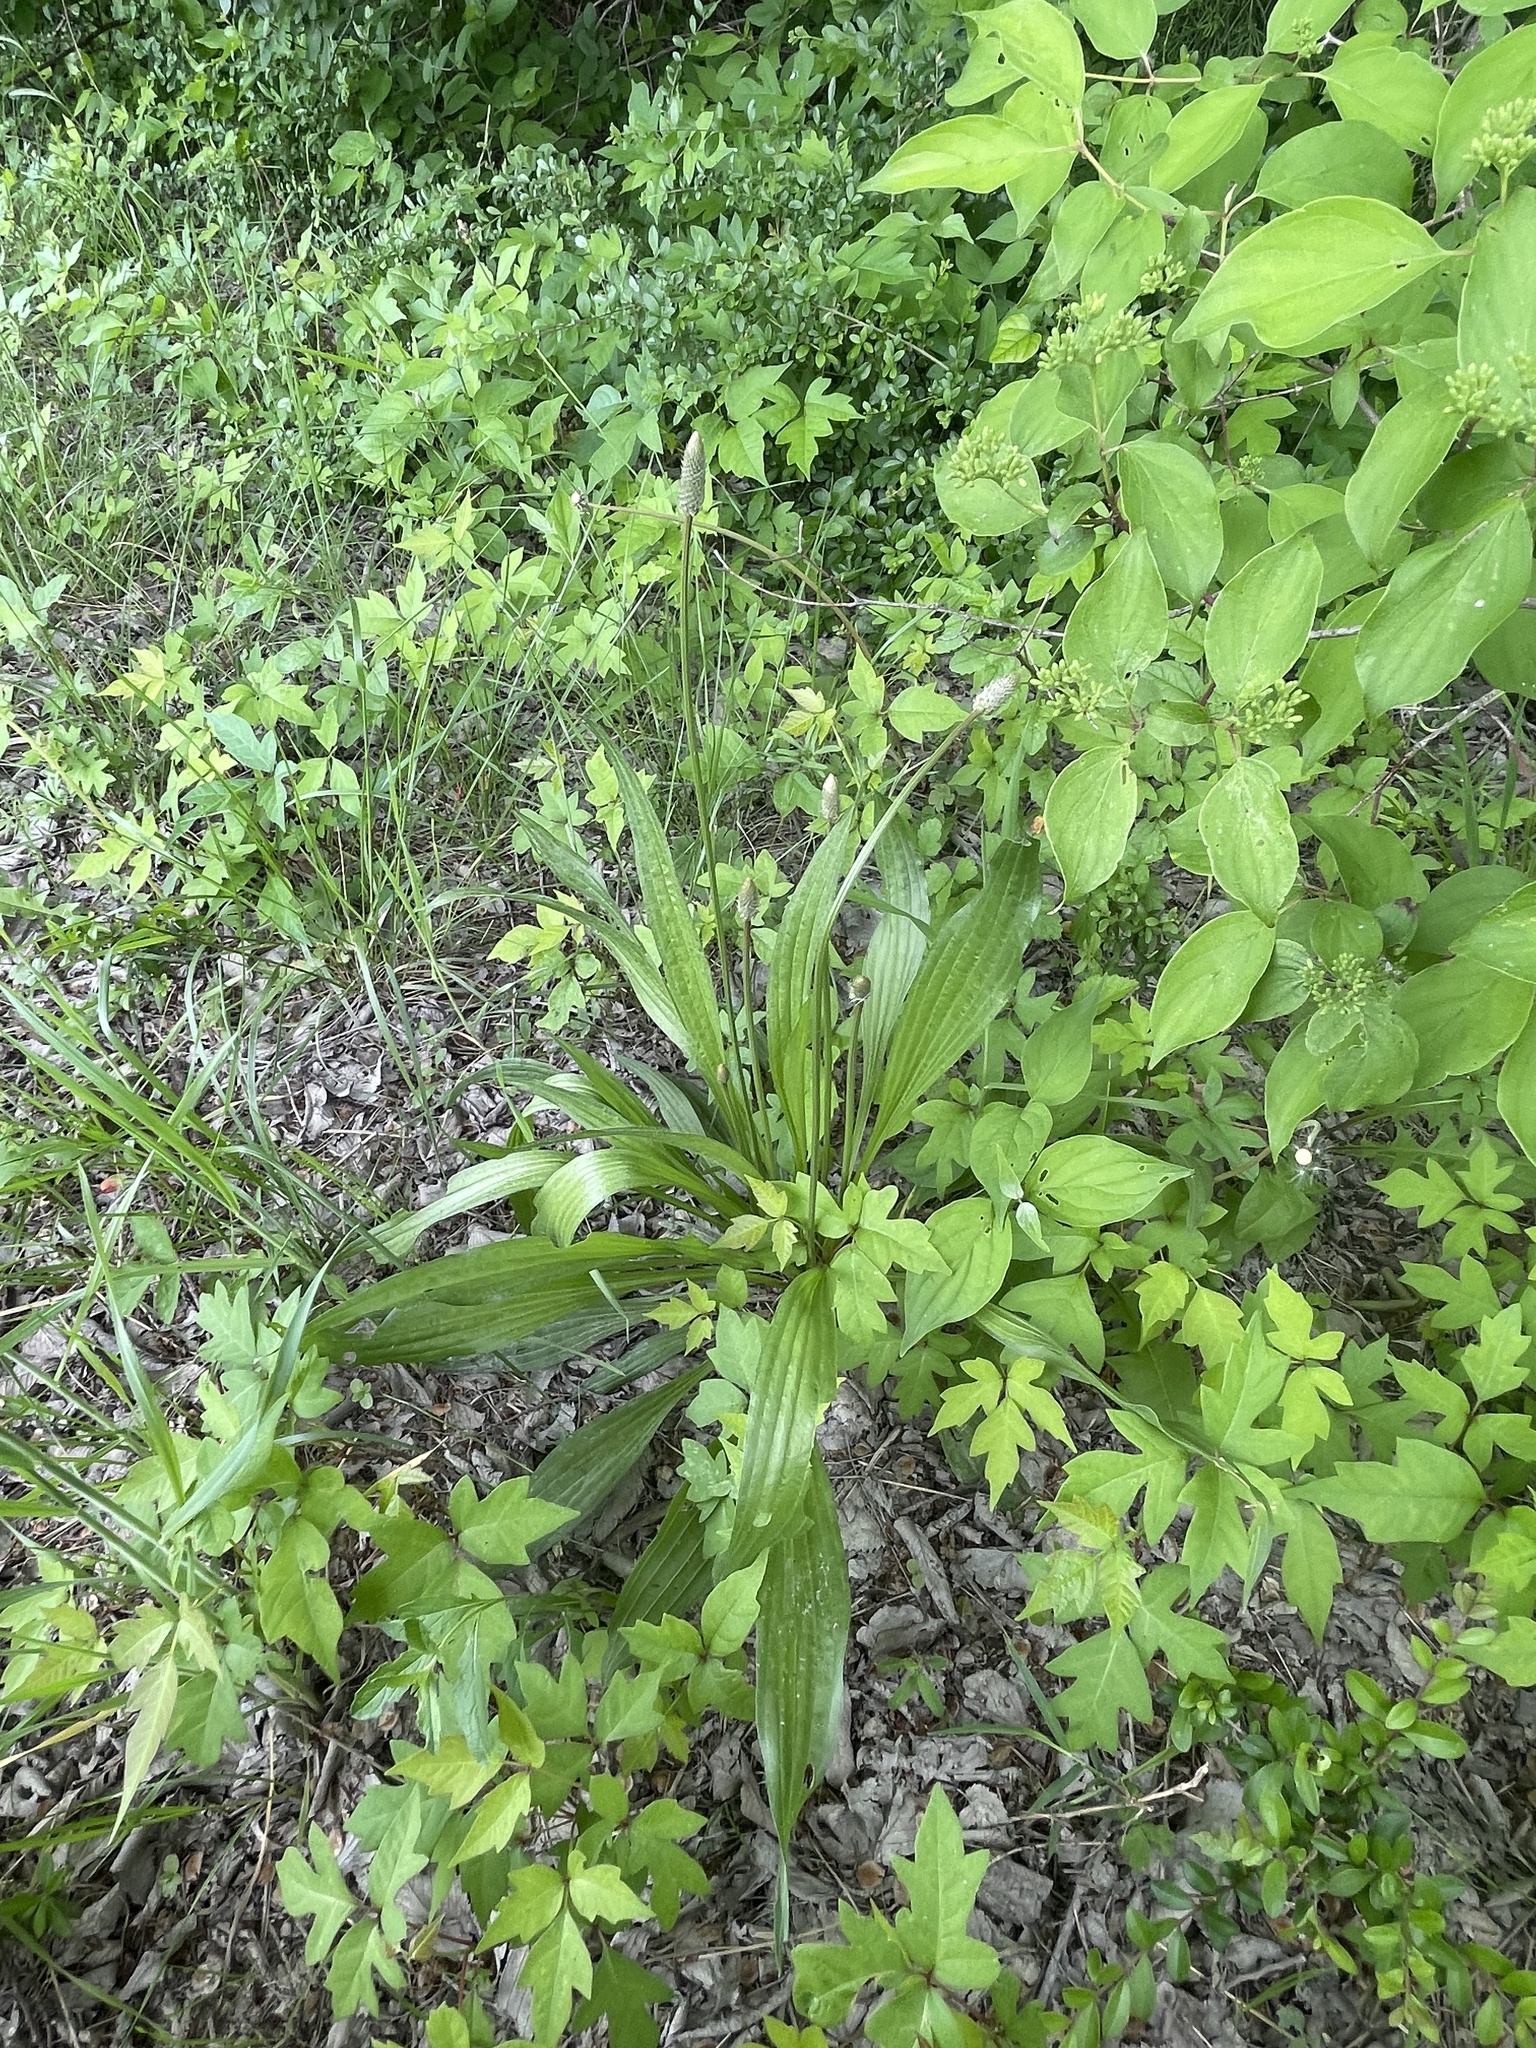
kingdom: Plantae
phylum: Tracheophyta
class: Magnoliopsida
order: Lamiales
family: Plantaginaceae
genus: Plantago
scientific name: Plantago lanceolata
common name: Ribwort plantain
